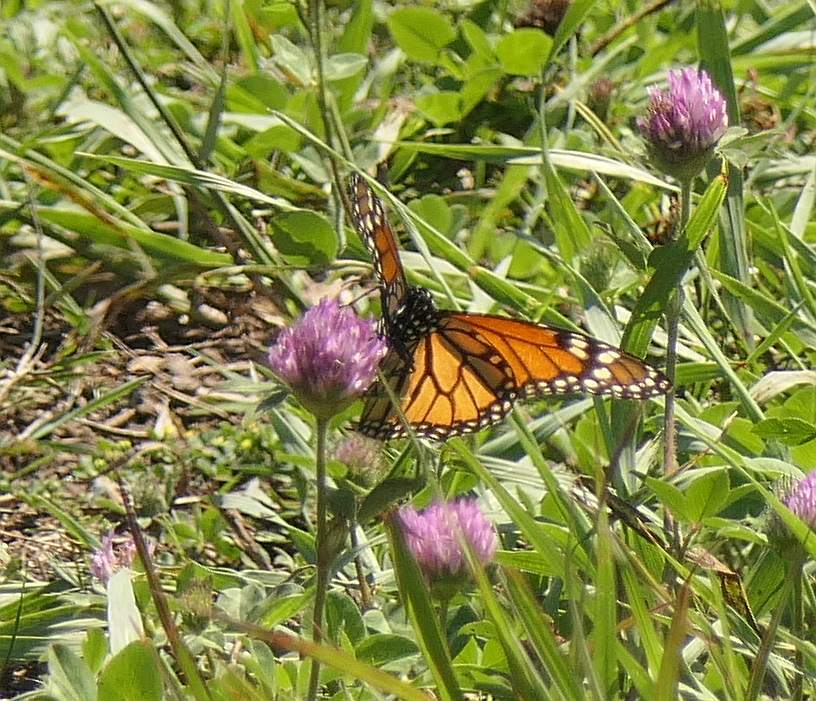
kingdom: Animalia
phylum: Arthropoda
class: Insecta
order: Lepidoptera
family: Nymphalidae
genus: Danaus
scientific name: Danaus plexippus
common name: Monarch
